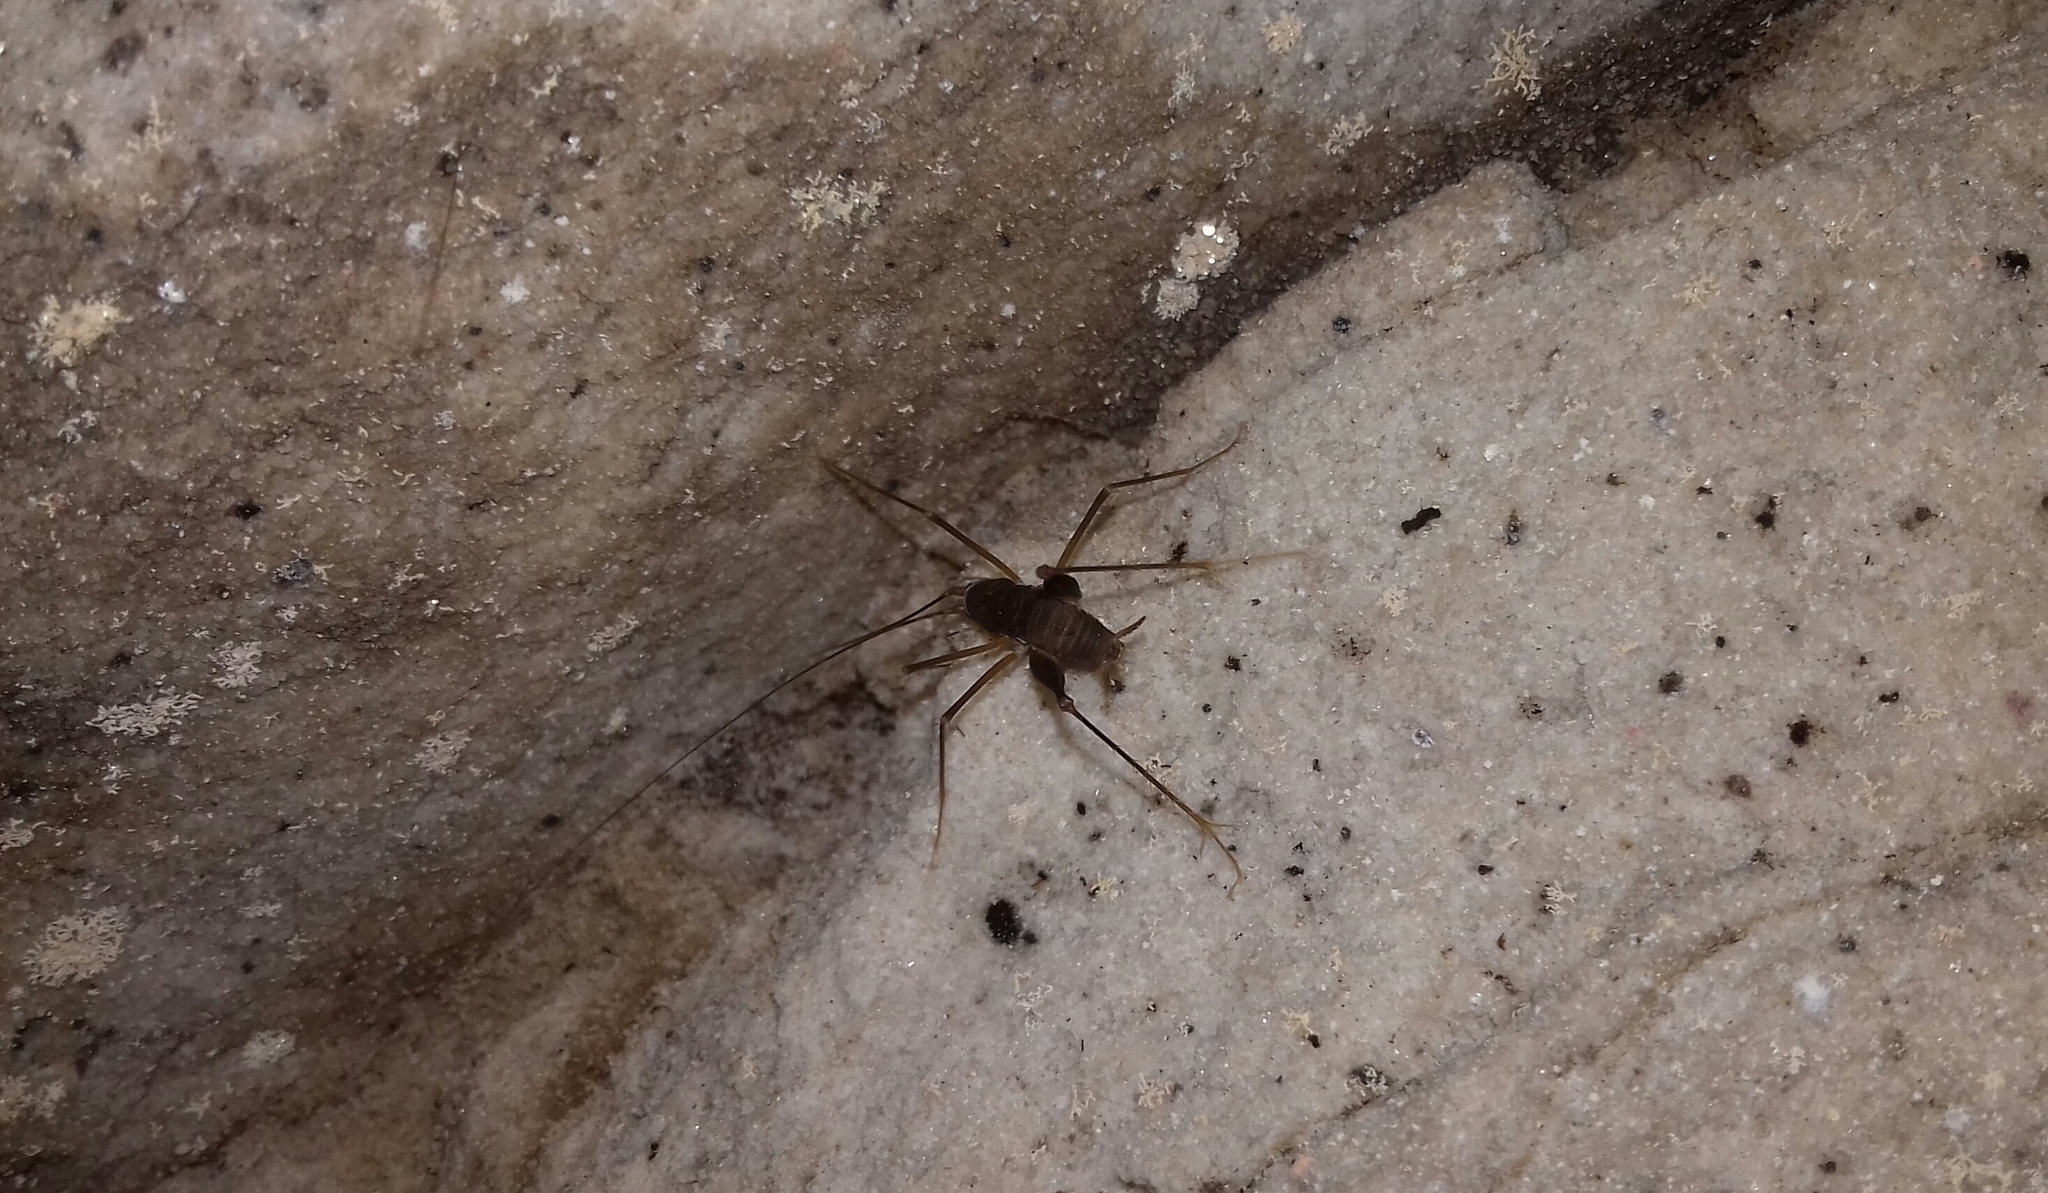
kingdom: Animalia
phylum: Arthropoda
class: Insecta
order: Orthoptera
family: Rhaphidophoridae
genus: Spelaeiacris
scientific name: Spelaeiacris tabulae
